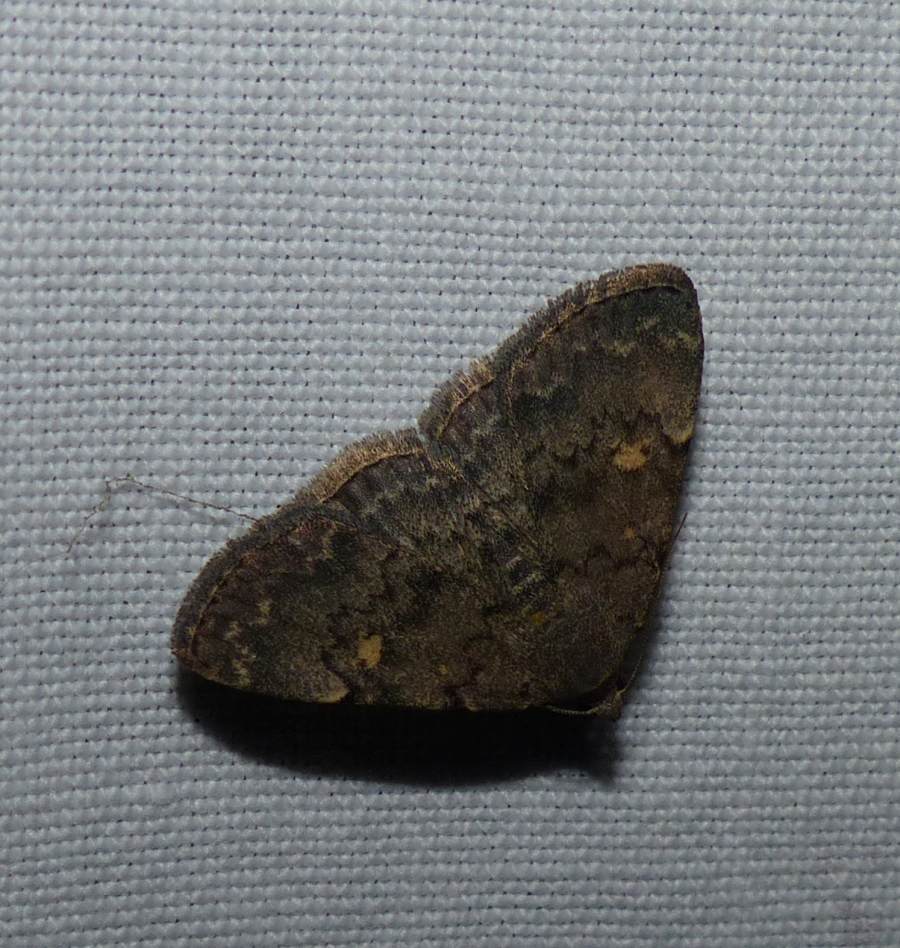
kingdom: Animalia
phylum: Arthropoda
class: Insecta
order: Lepidoptera
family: Erebidae
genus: Idia
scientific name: Idia aemula
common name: Common idia moth
